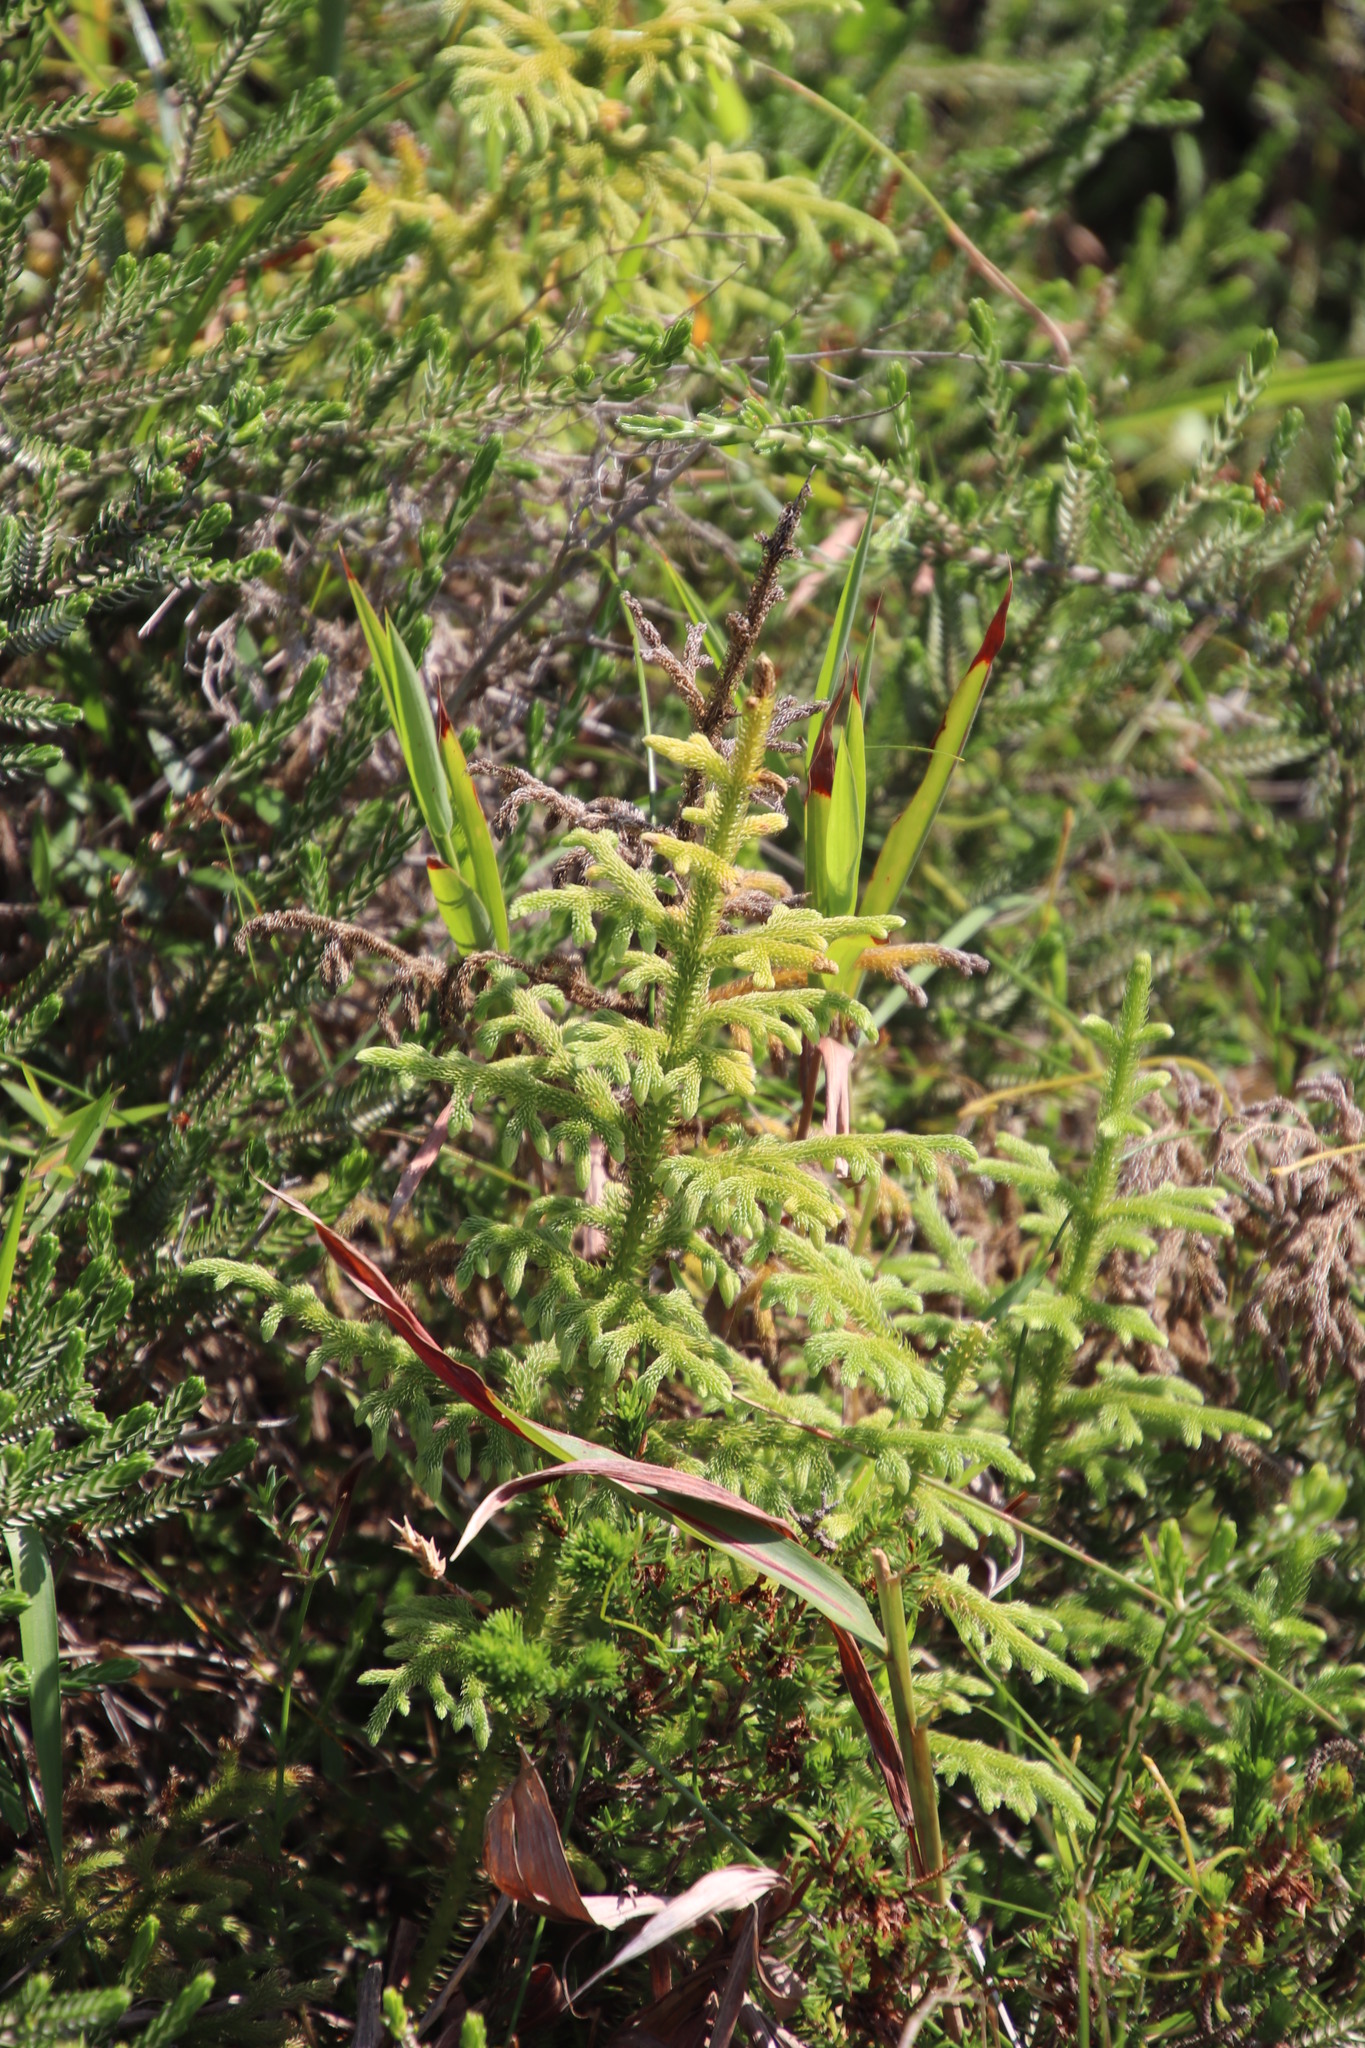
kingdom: Plantae
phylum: Tracheophyta
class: Lycopodiopsida
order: Lycopodiales
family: Lycopodiaceae
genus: Palhinhaea
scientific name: Palhinhaea cernua
